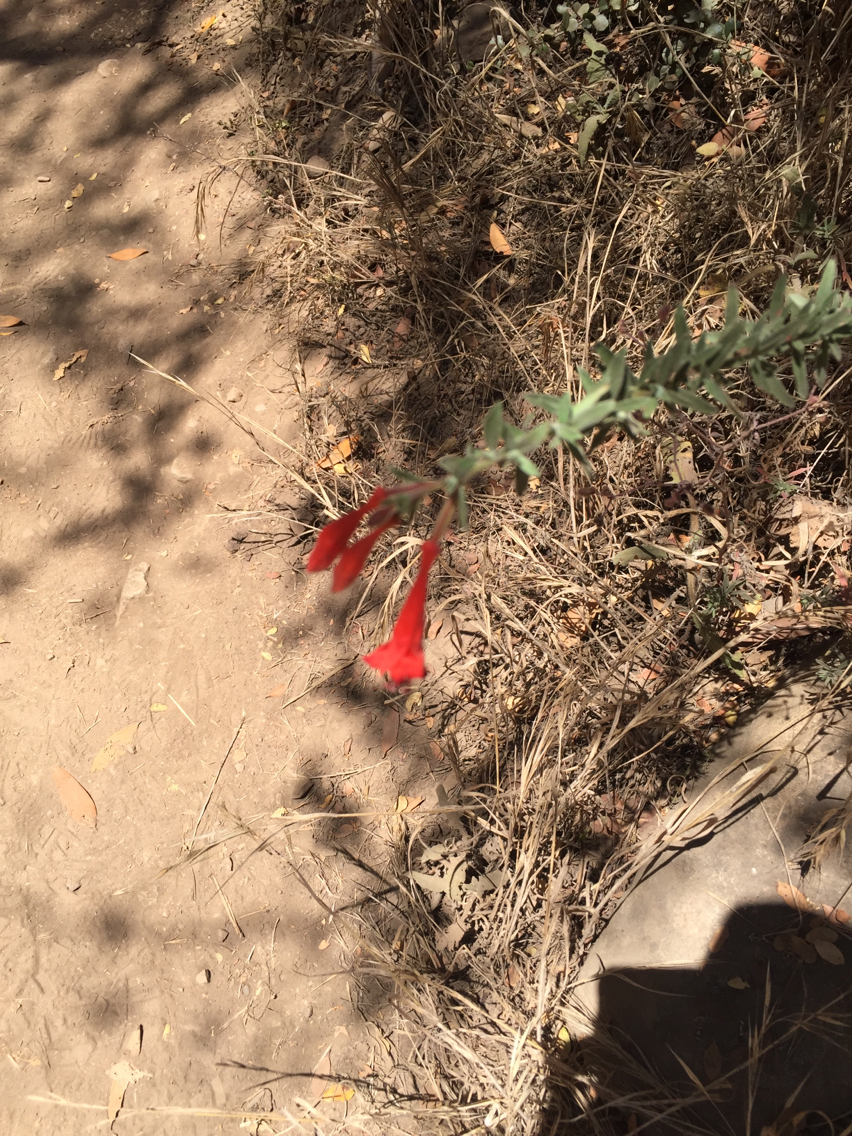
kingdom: Plantae
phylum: Tracheophyta
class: Magnoliopsida
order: Myrtales
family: Onagraceae
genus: Epilobium
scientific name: Epilobium canum
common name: California-fuchsia
